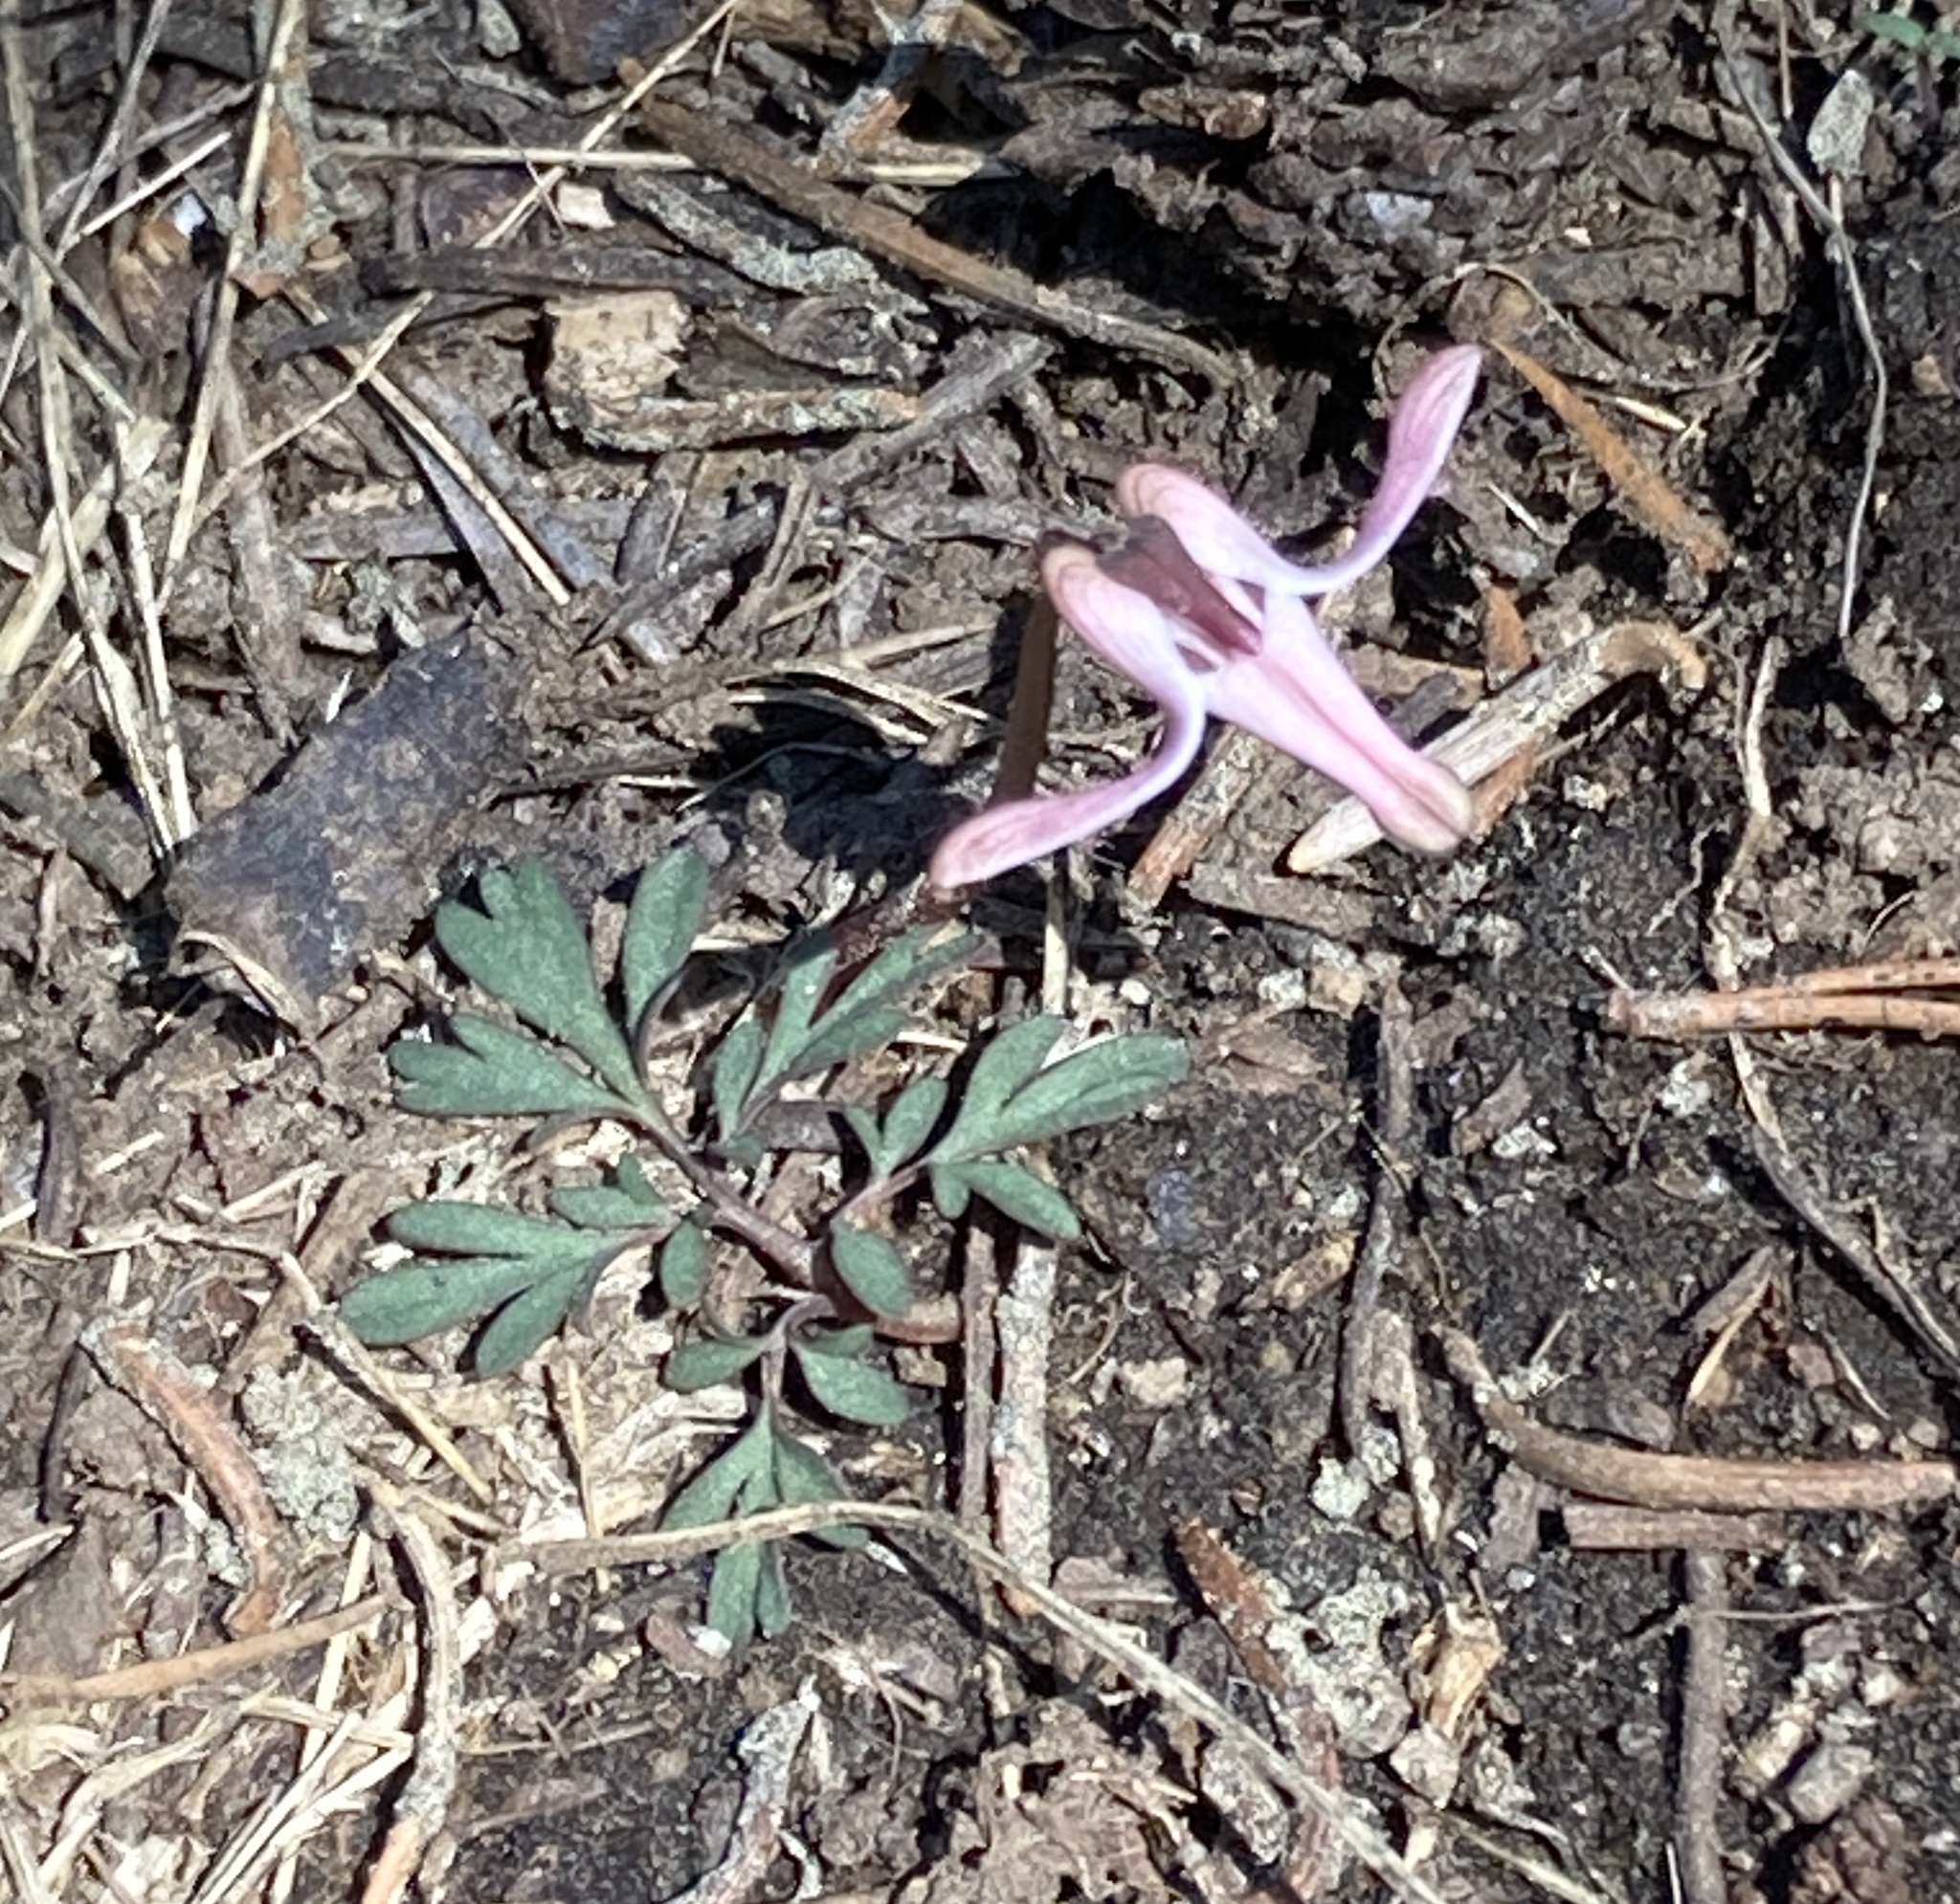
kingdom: Plantae
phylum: Tracheophyta
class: Magnoliopsida
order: Ranunculales
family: Papaveraceae
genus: Dicentra
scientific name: Dicentra uniflora
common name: Steer's-head
